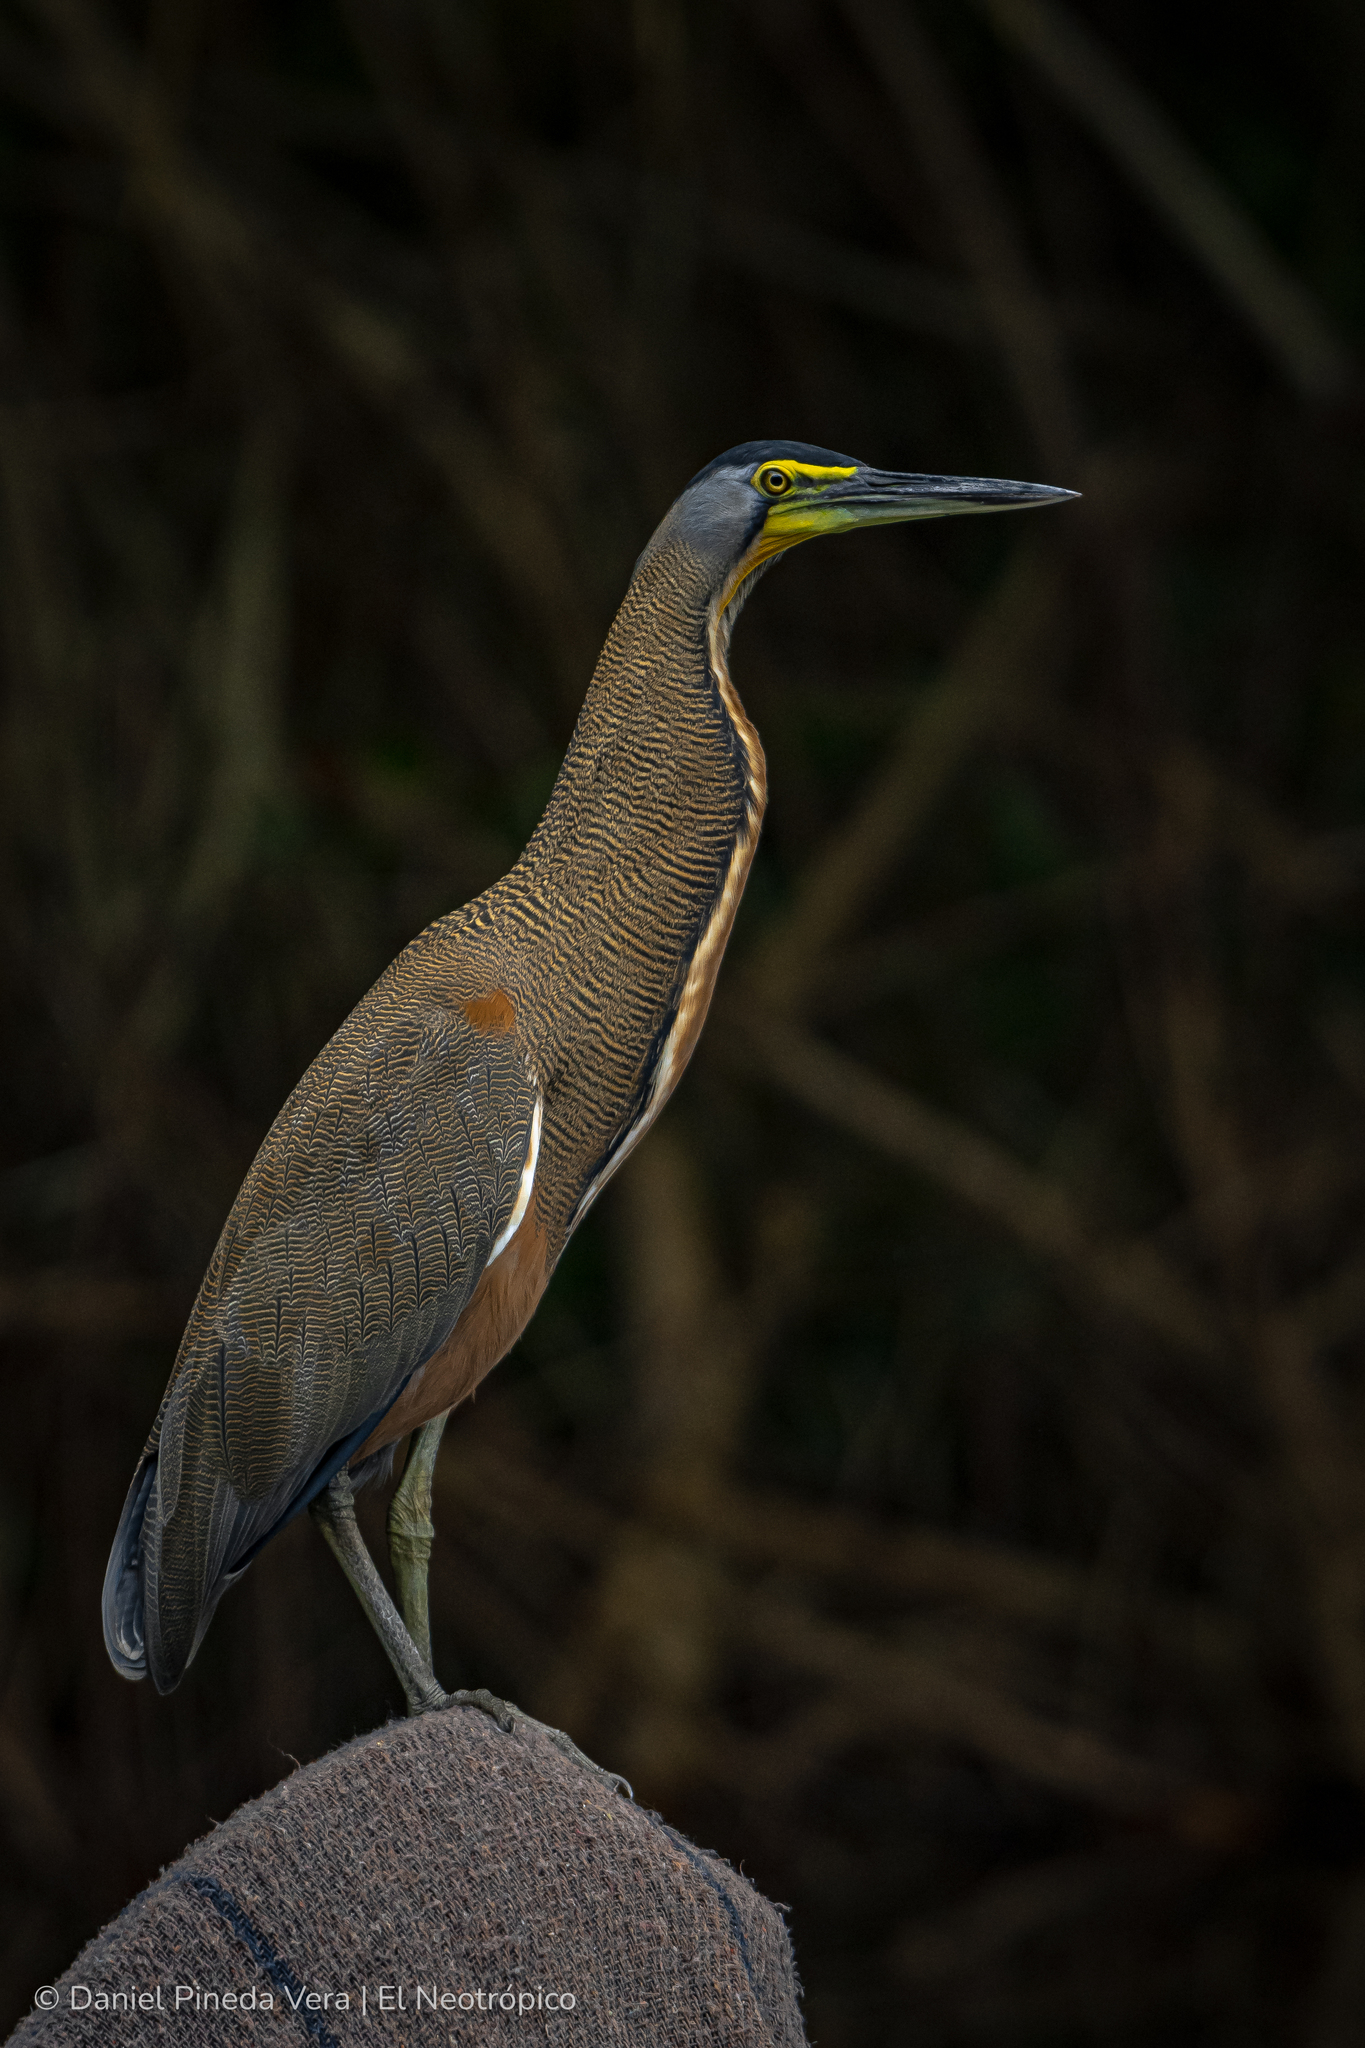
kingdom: Animalia
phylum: Chordata
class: Aves
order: Pelecaniformes
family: Ardeidae
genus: Tigrisoma
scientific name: Tigrisoma mexicanum
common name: Bare-throated tiger-heron
